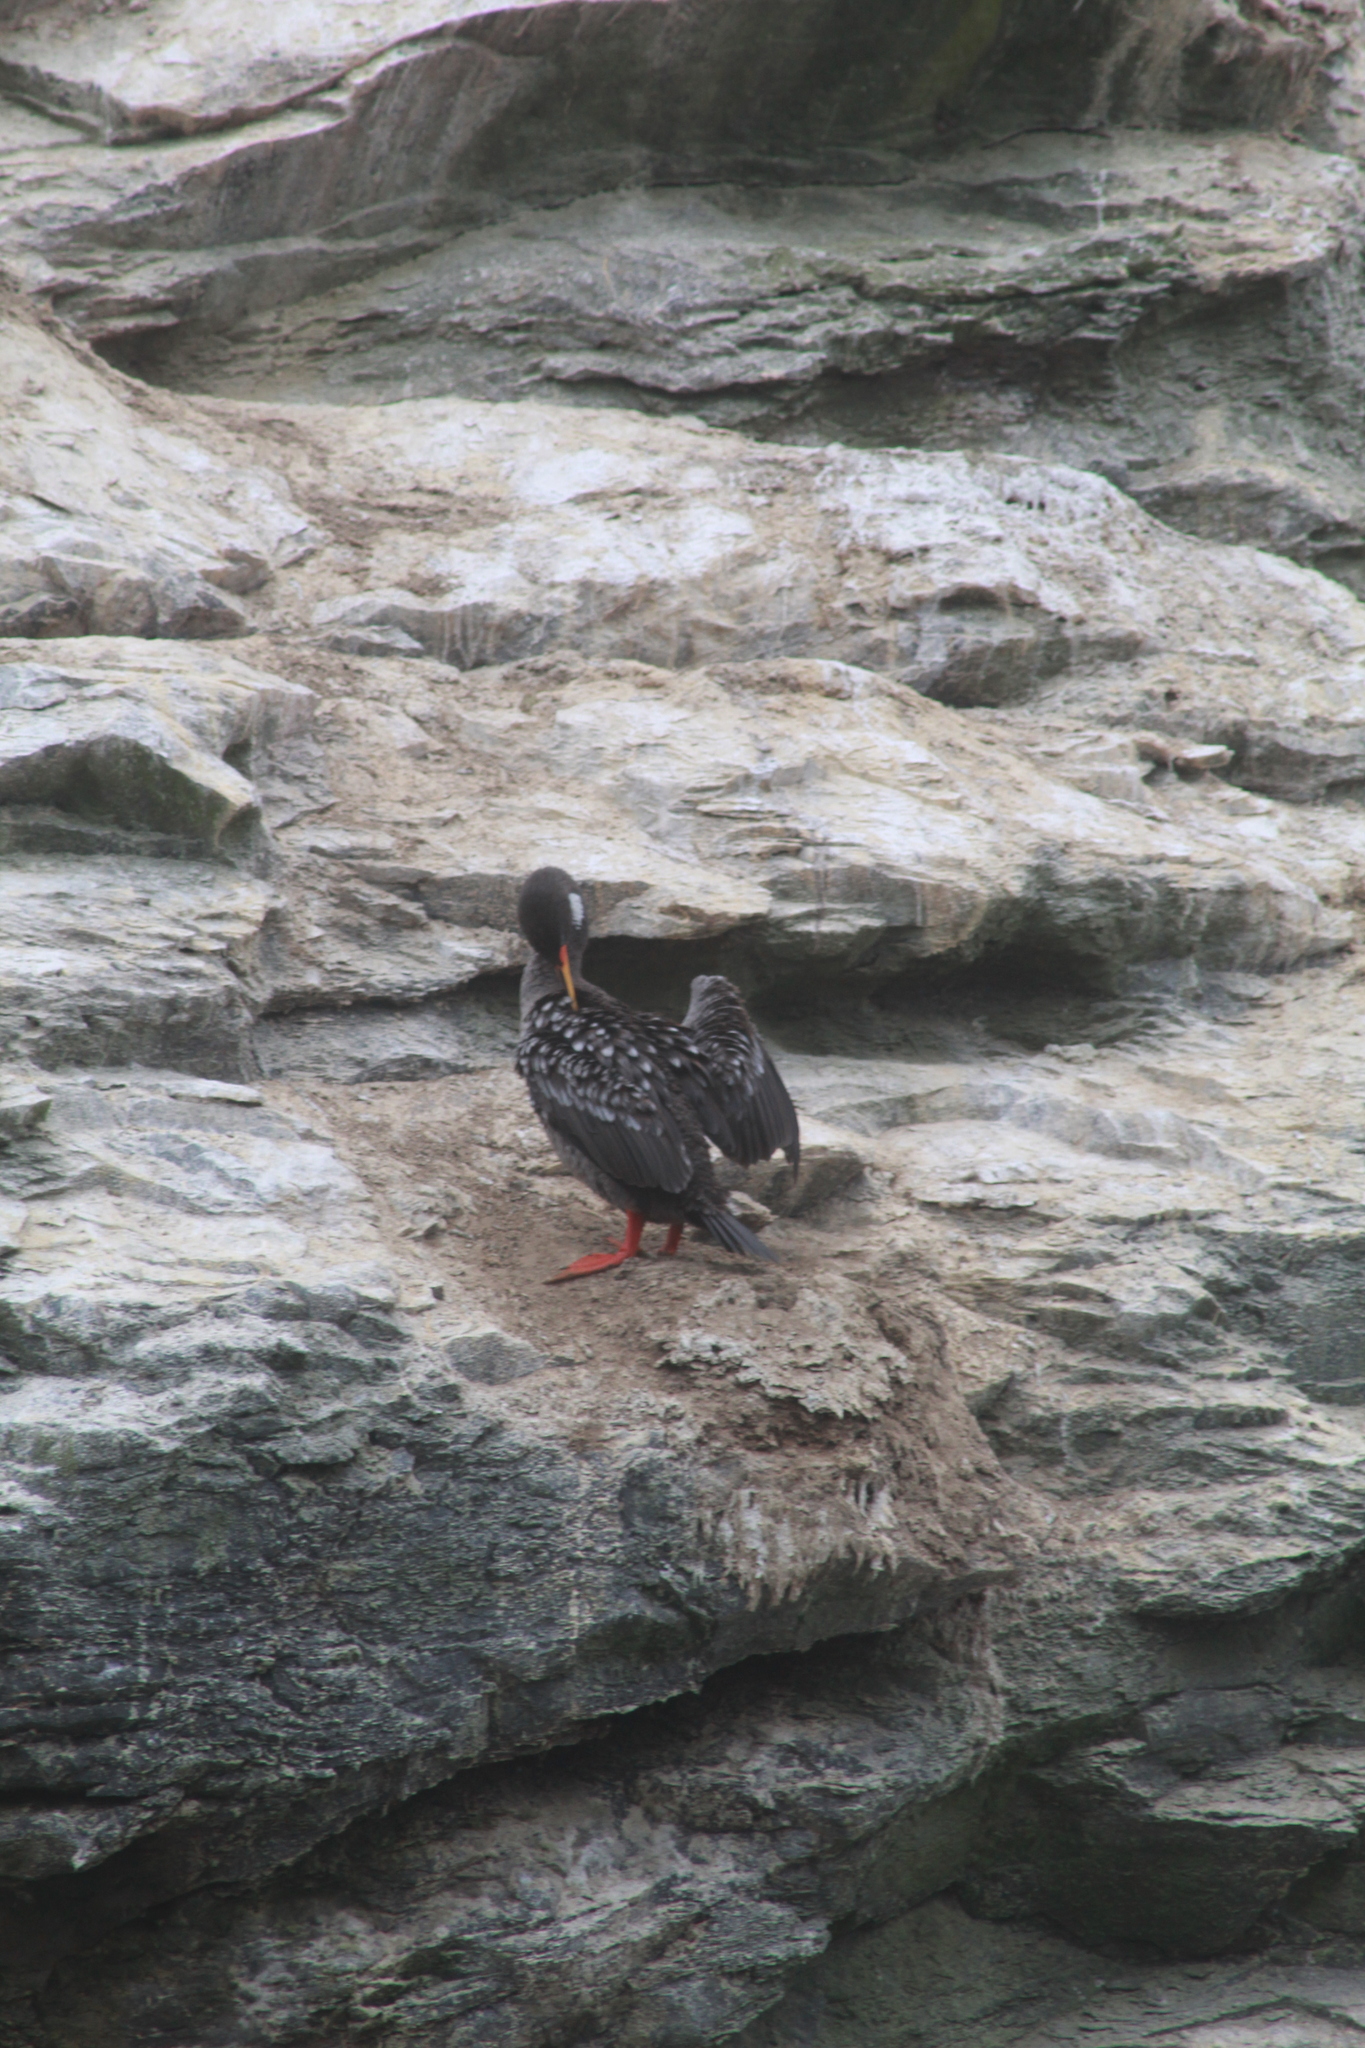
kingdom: Animalia
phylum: Chordata
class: Aves
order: Suliformes
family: Phalacrocoracidae
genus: Phalacrocorax
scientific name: Phalacrocorax gaimardi
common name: Red-legged cormorant
